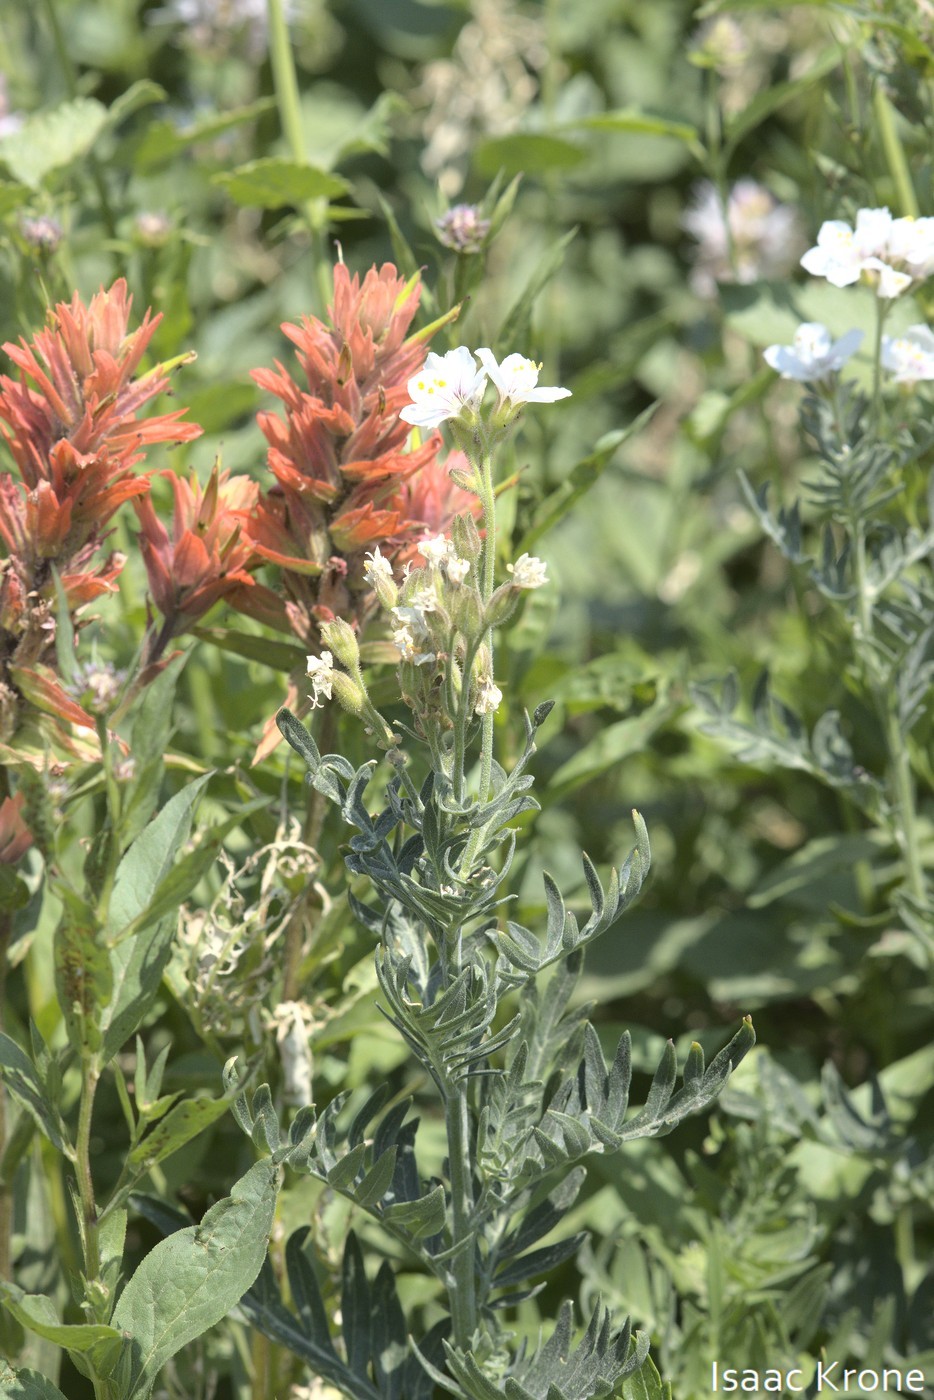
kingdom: Plantae
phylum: Tracheophyta
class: Magnoliopsida
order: Ericales
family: Polemoniaceae
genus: Polemonium
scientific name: Polemonium foliosissimum
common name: Leafy jacob's-ladder
